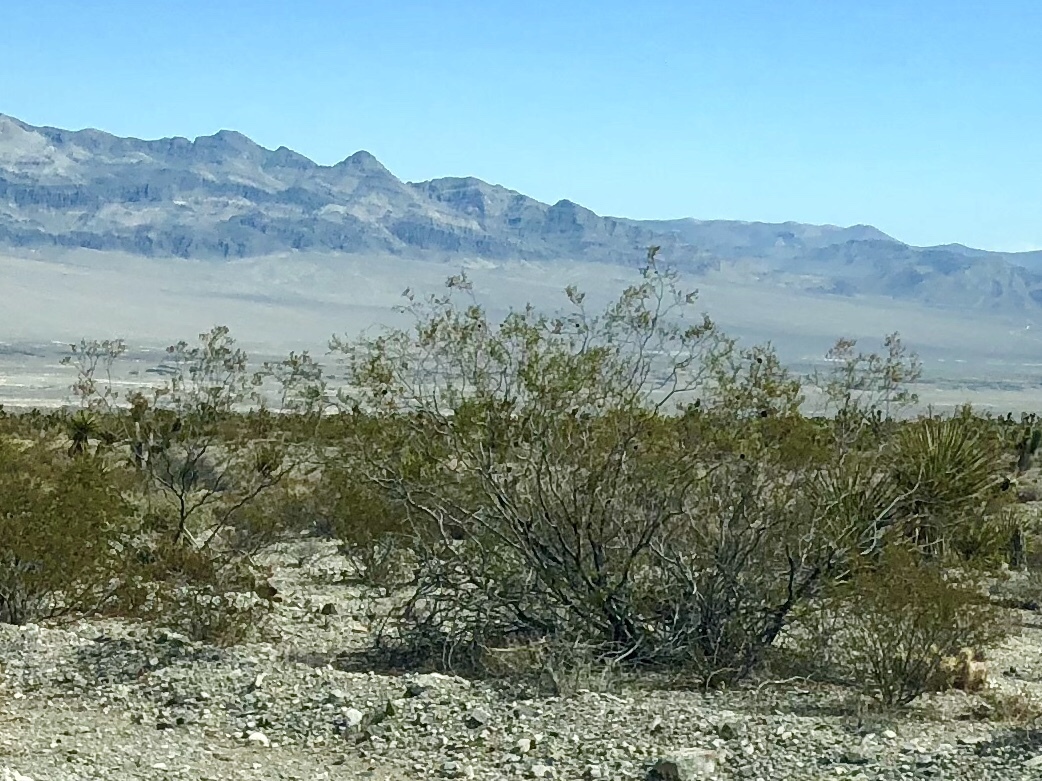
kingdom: Plantae
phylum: Tracheophyta
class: Magnoliopsida
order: Zygophyllales
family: Zygophyllaceae
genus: Larrea
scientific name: Larrea tridentata
